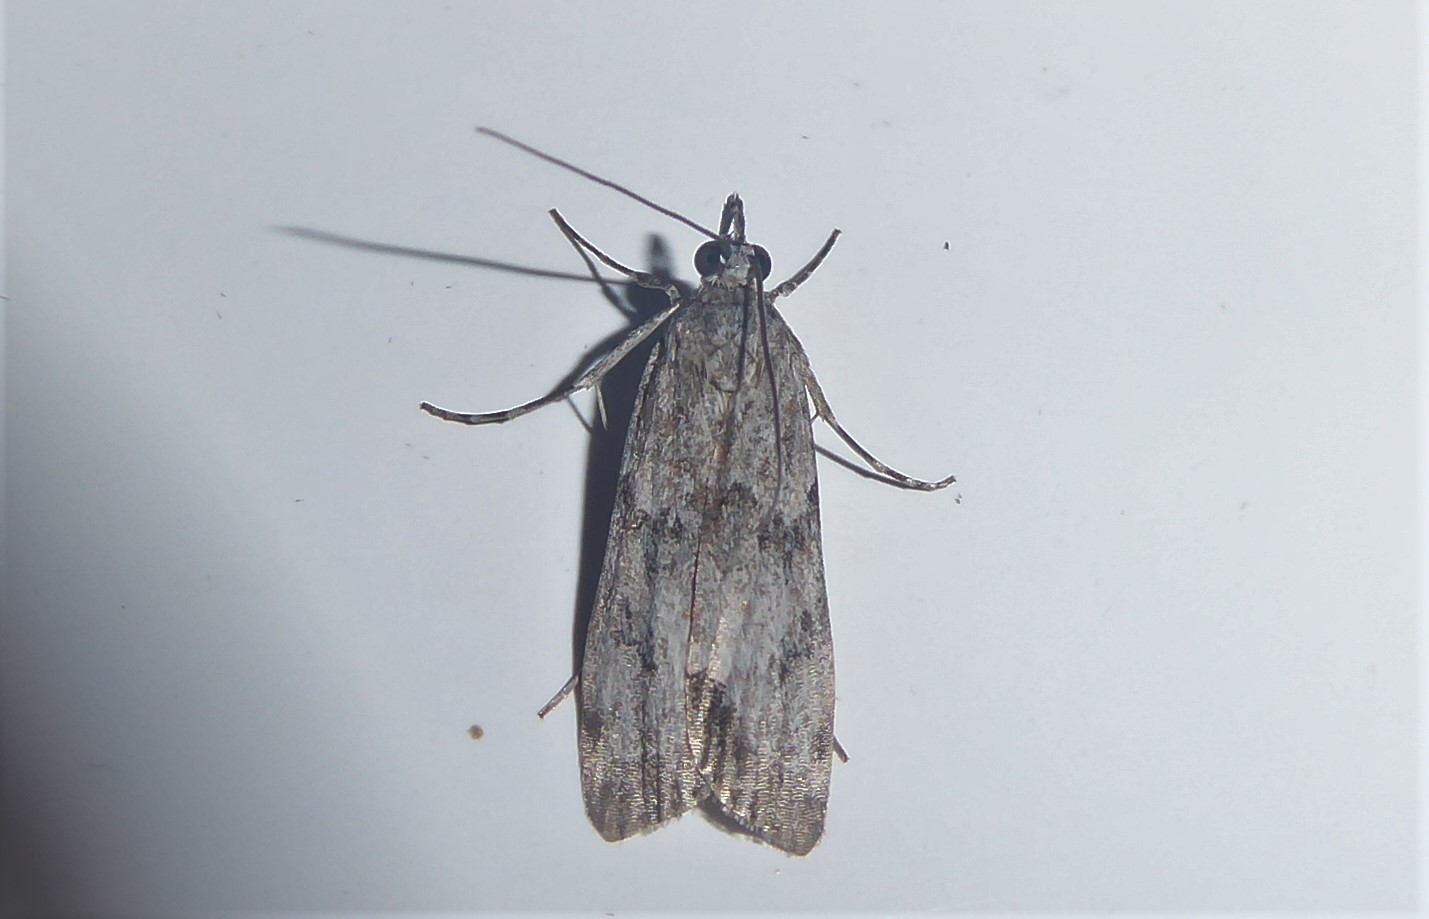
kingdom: Animalia
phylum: Arthropoda
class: Insecta
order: Lepidoptera
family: Crambidae
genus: Eudonia
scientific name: Eudonia rakaiensis
